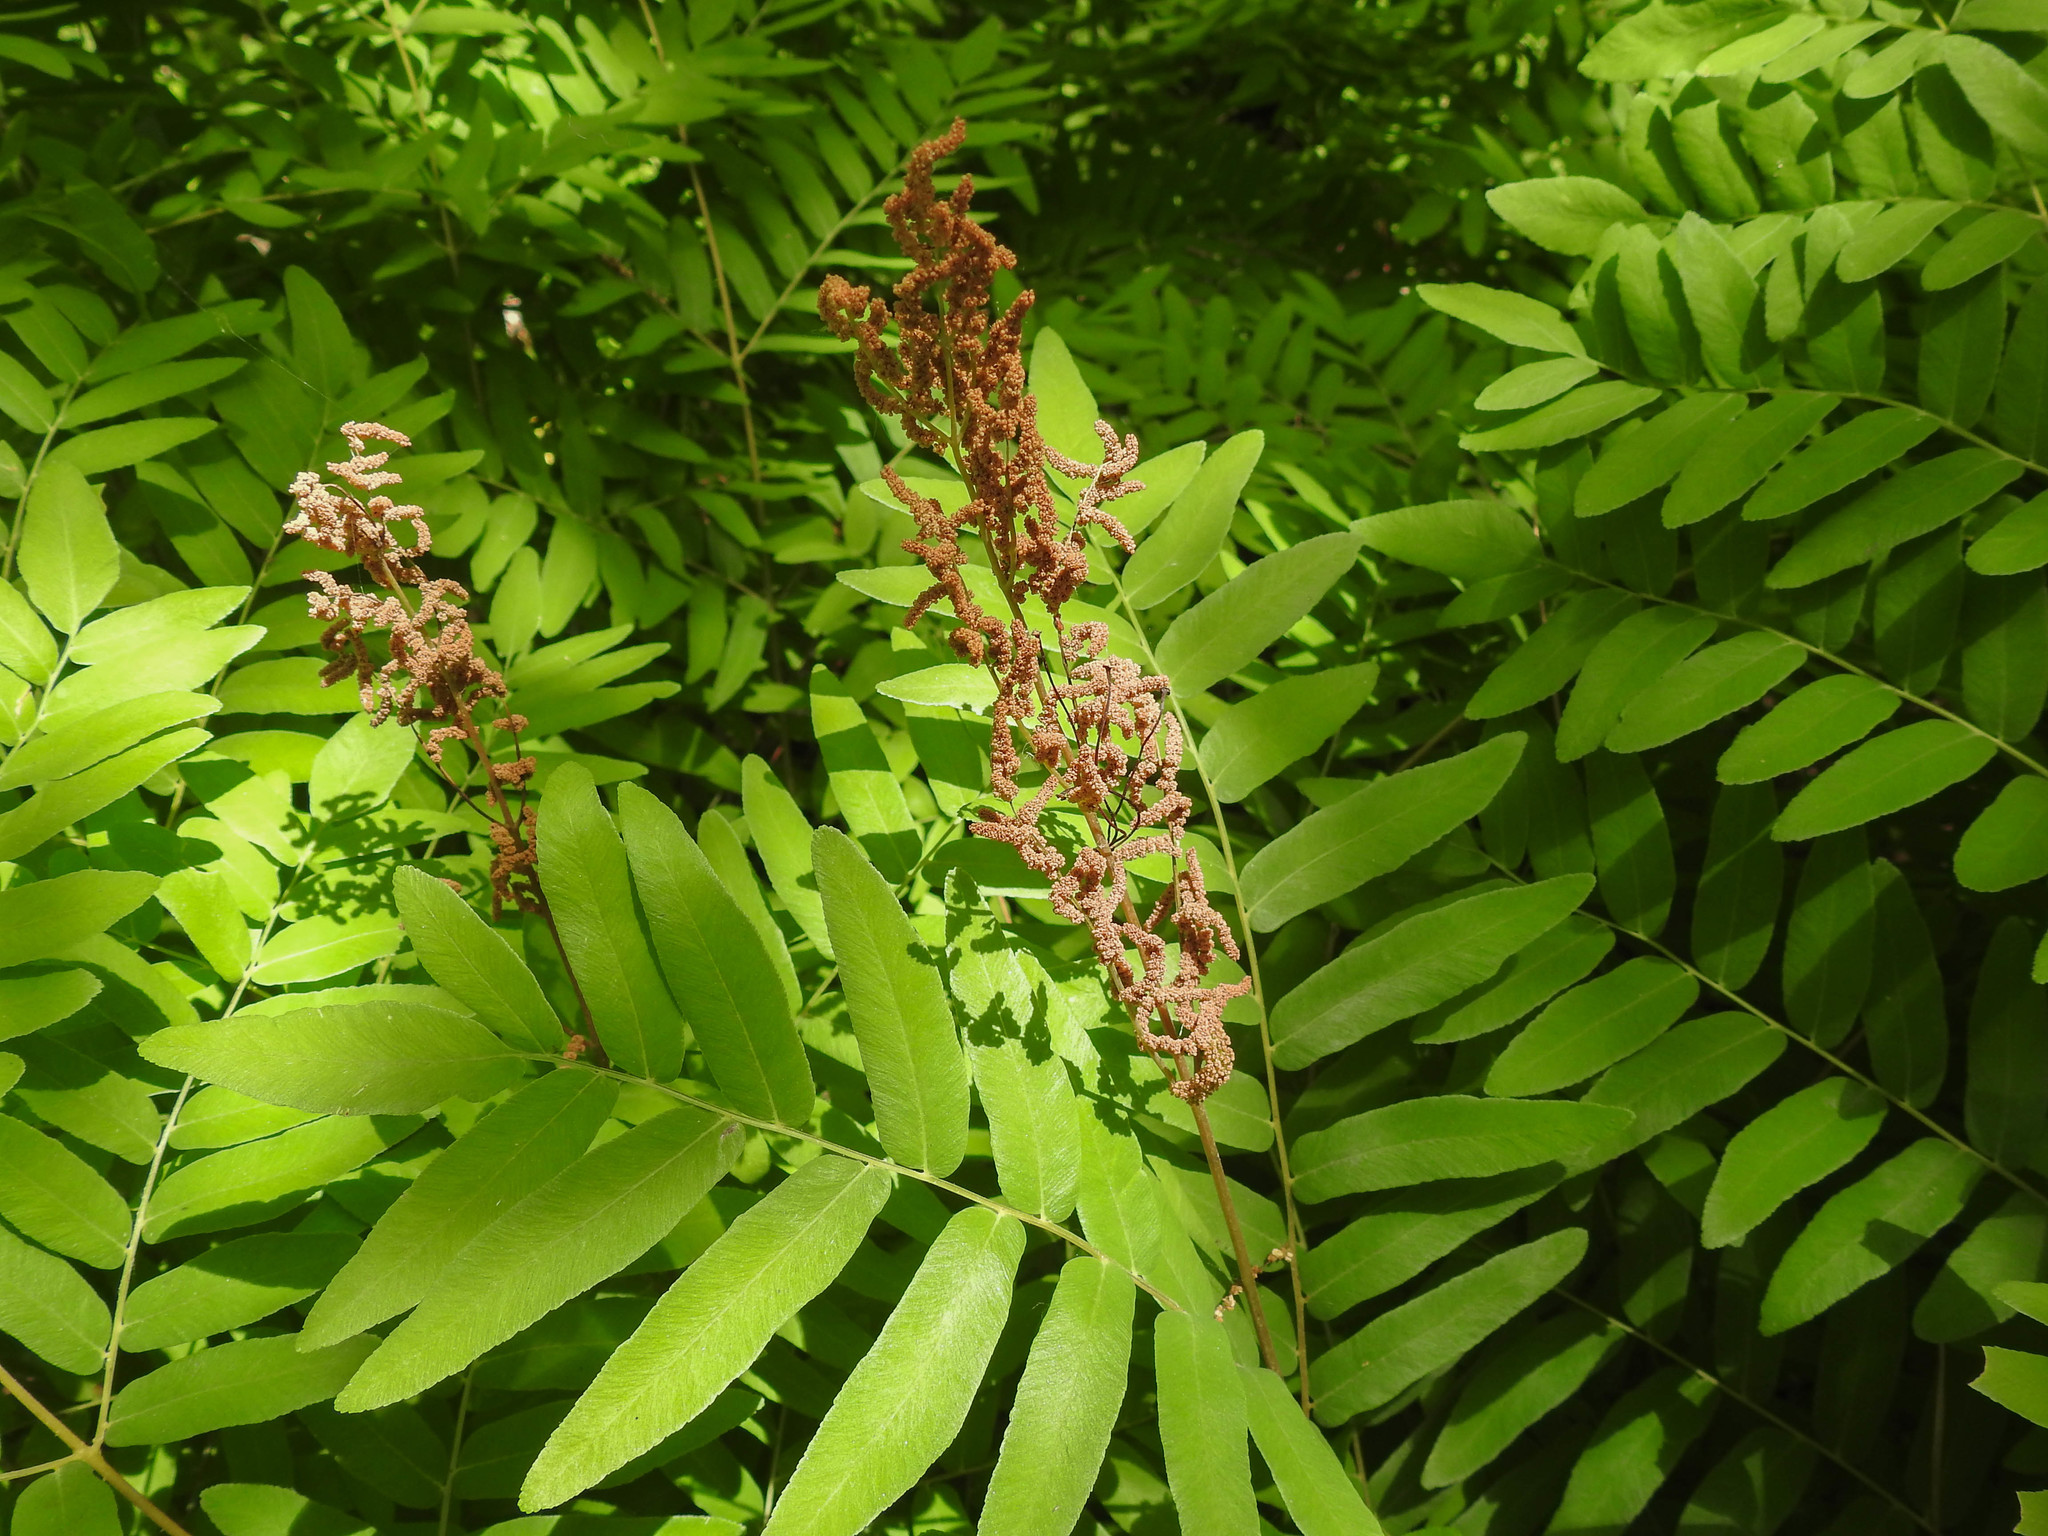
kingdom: Plantae
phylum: Tracheophyta
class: Polypodiopsida
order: Osmundales
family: Osmundaceae
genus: Osmunda
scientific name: Osmunda spectabilis
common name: American royal fern
